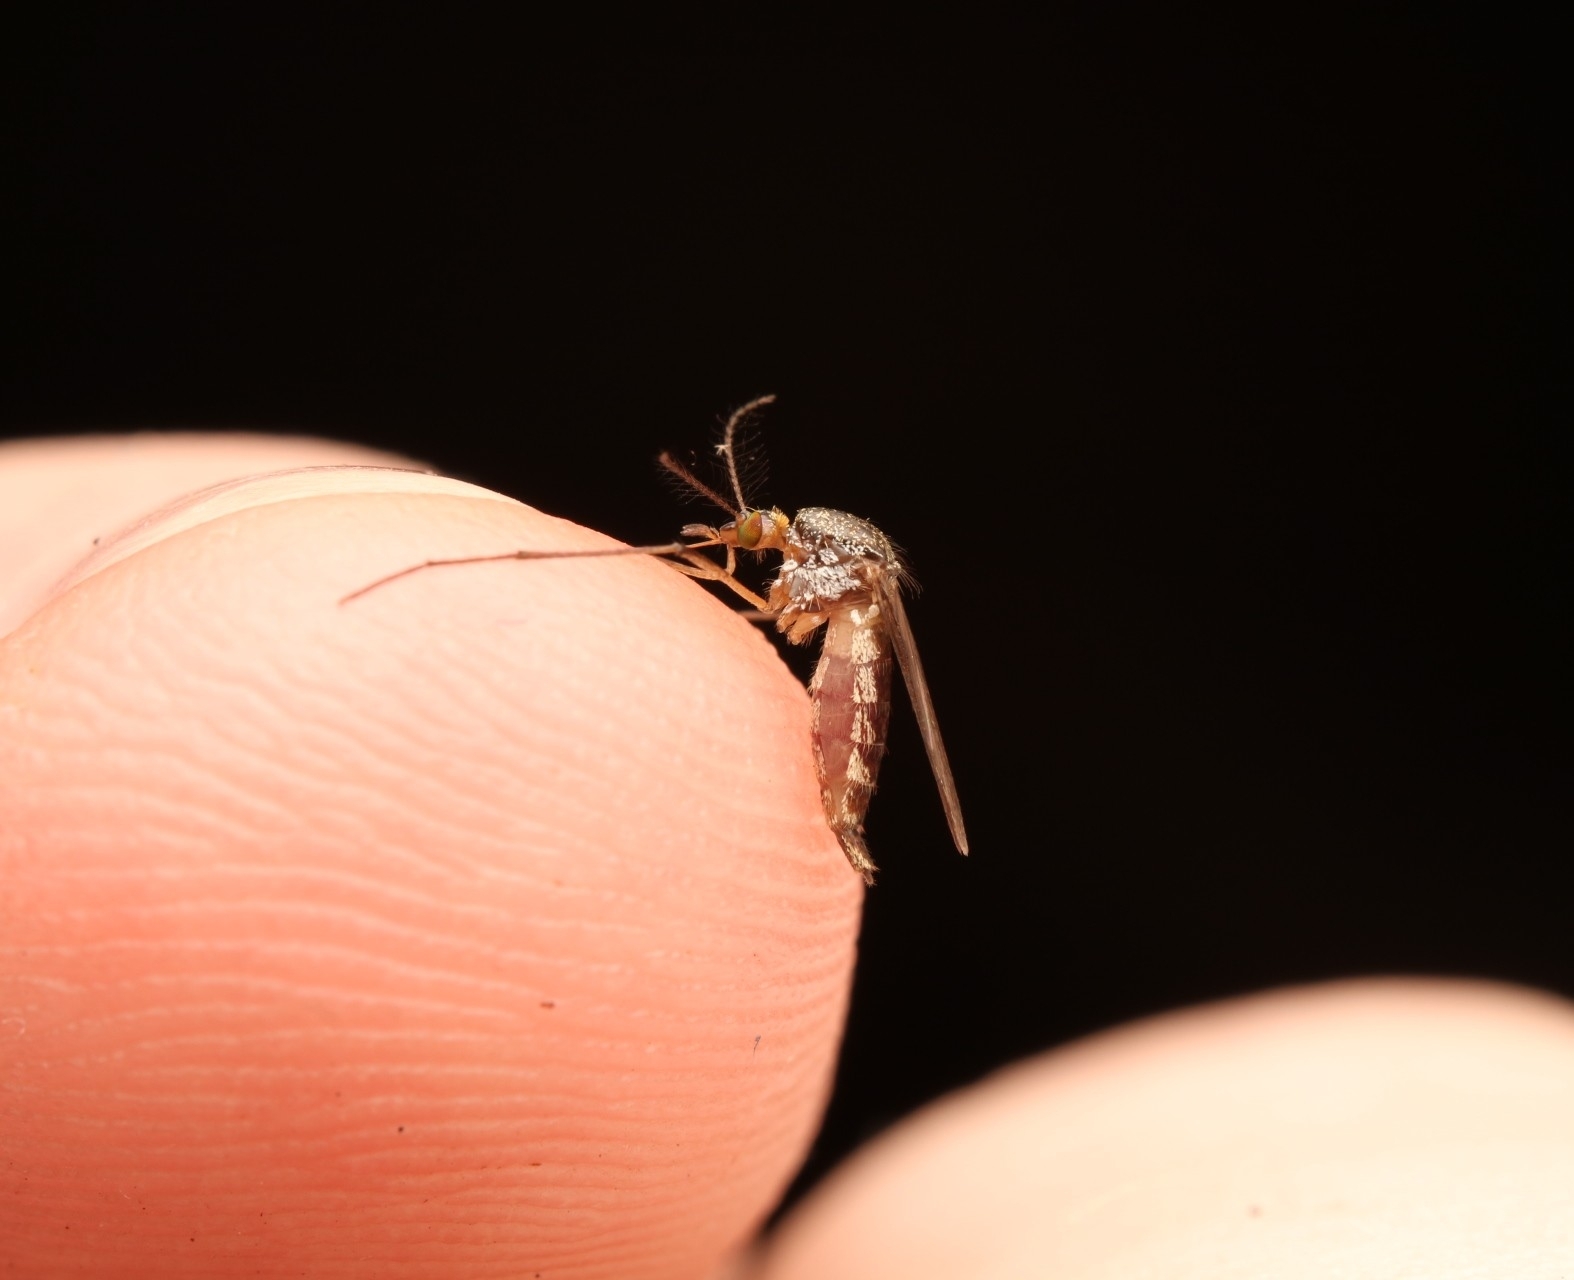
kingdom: Animalia
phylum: Arthropoda
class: Insecta
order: Diptera
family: Culicidae
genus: Psorophora
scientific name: Psorophora ferox
